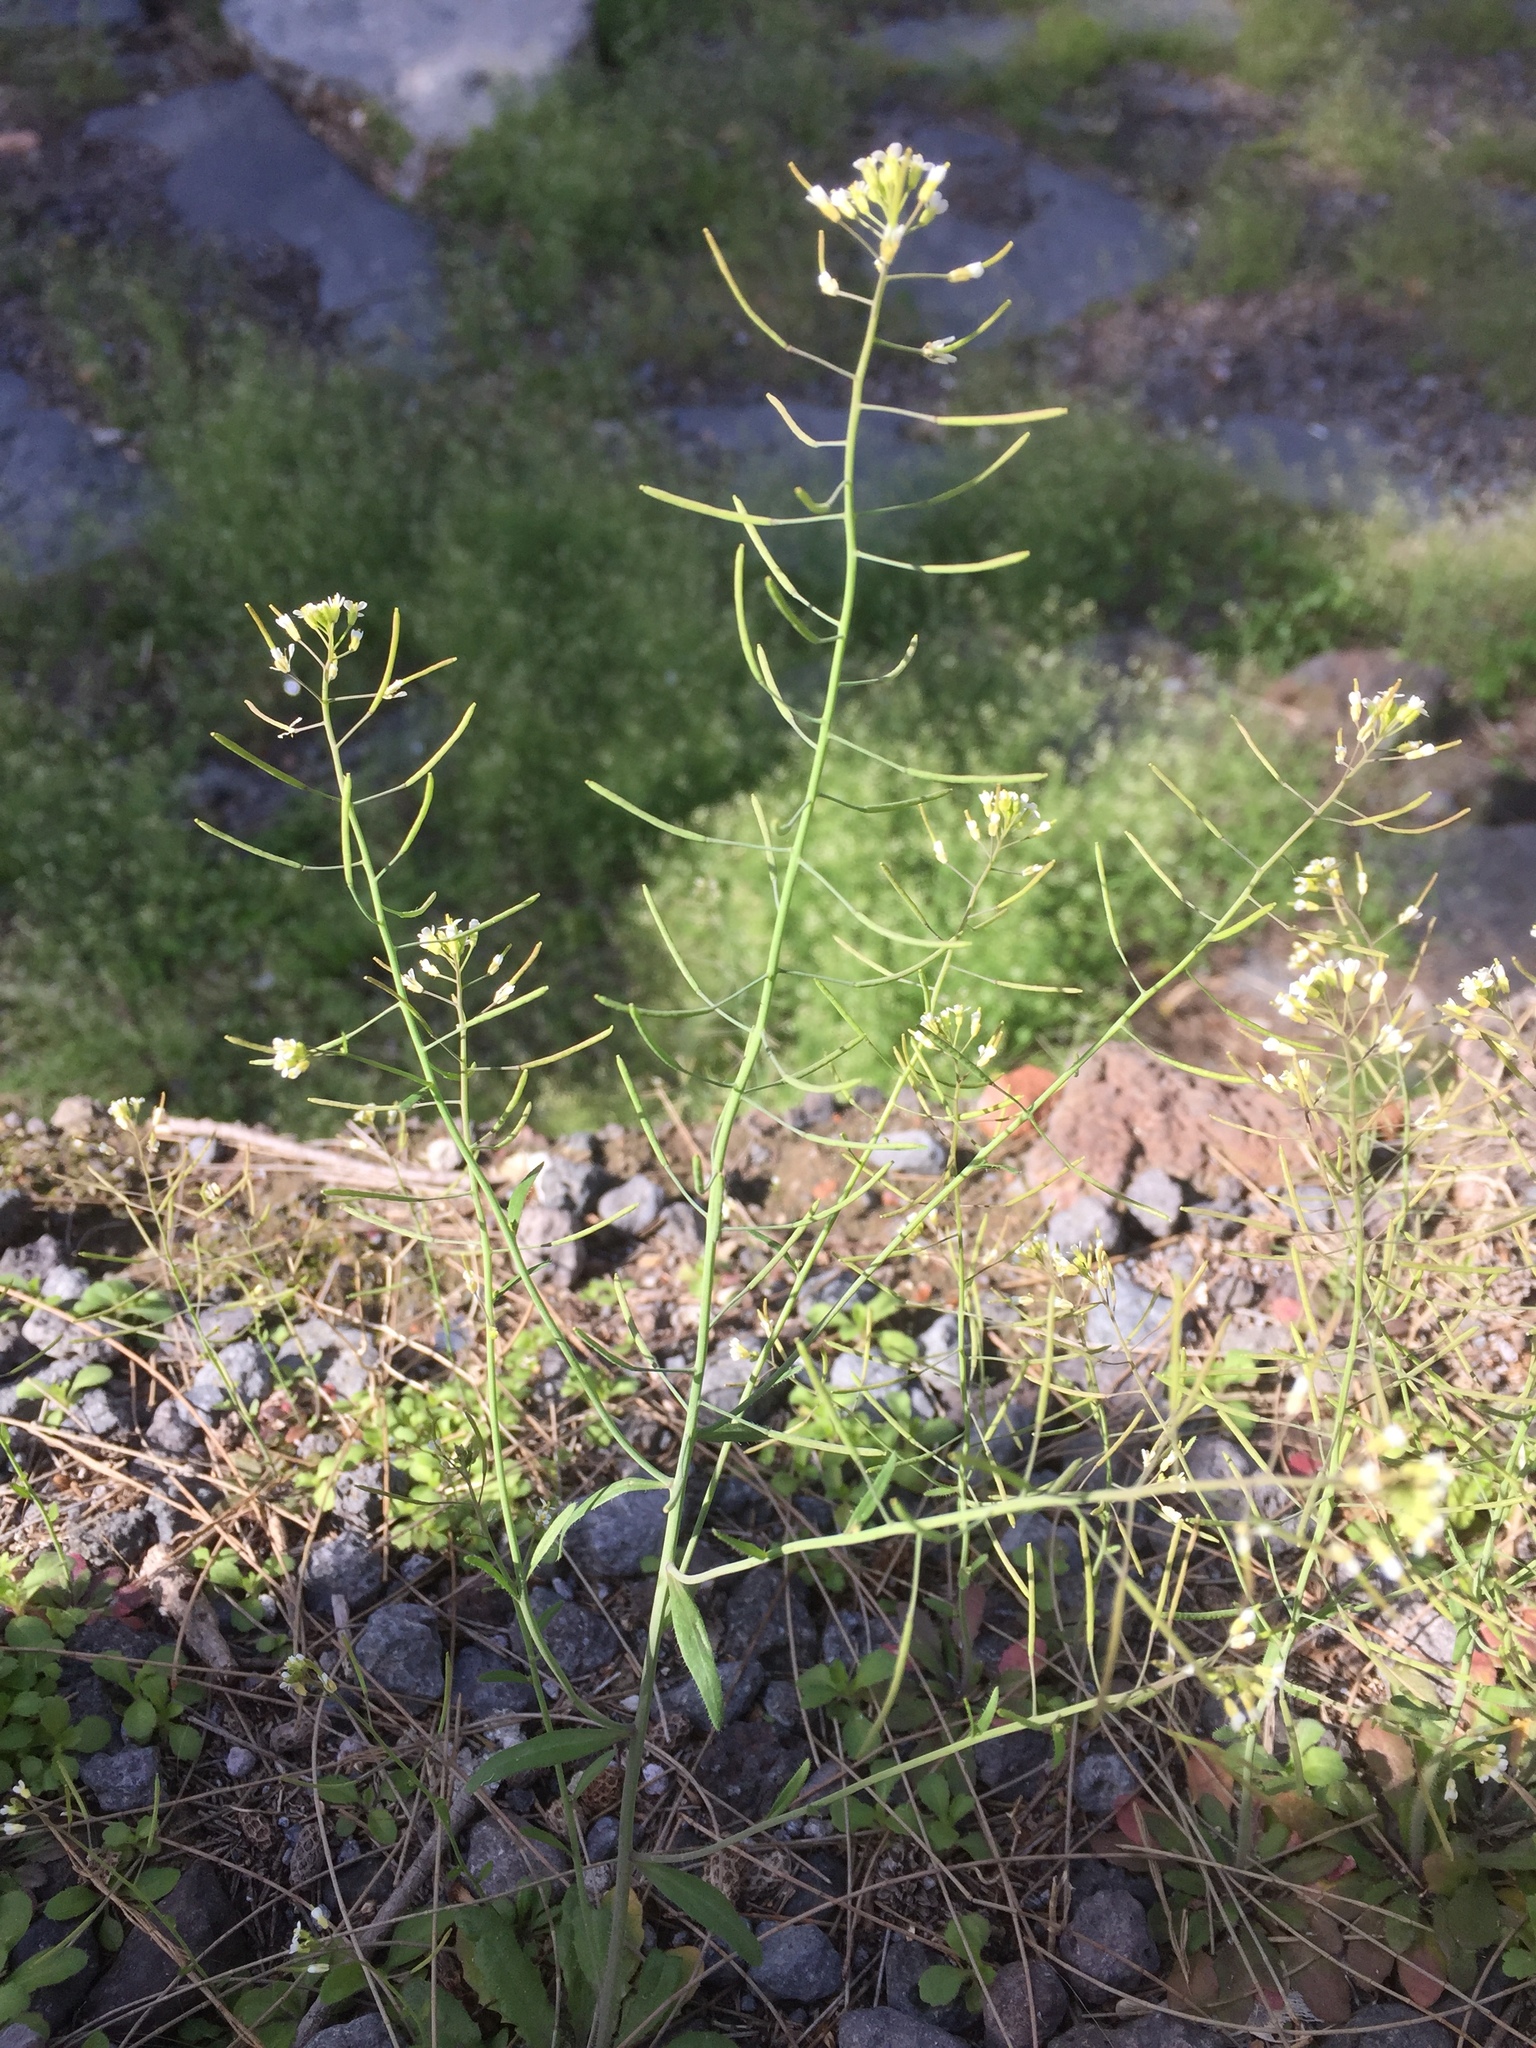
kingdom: Plantae
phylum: Tracheophyta
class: Magnoliopsida
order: Brassicales
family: Brassicaceae
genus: Arabidopsis
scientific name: Arabidopsis thaliana
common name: Thale cress
